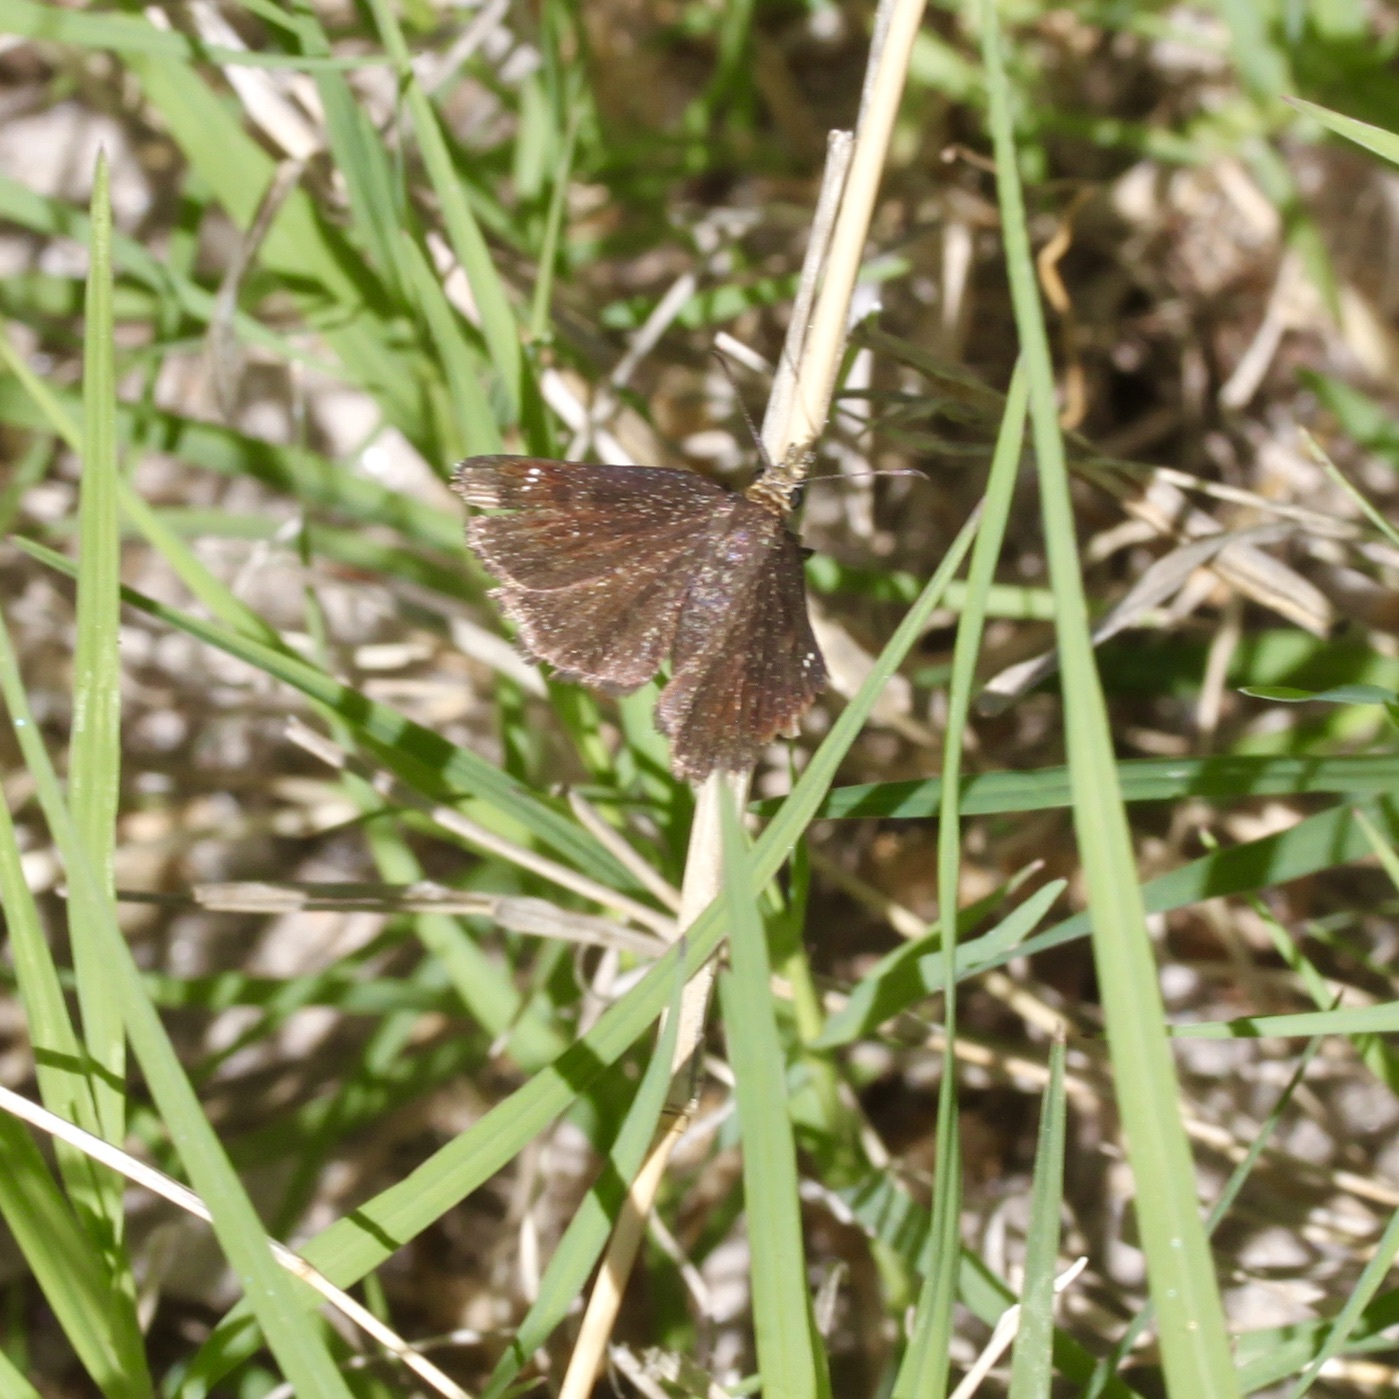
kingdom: Animalia
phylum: Arthropoda
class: Insecta
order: Lepidoptera
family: Hesperiidae
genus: Staphylus
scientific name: Staphylus ceos
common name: Golden-headed scallopwing
